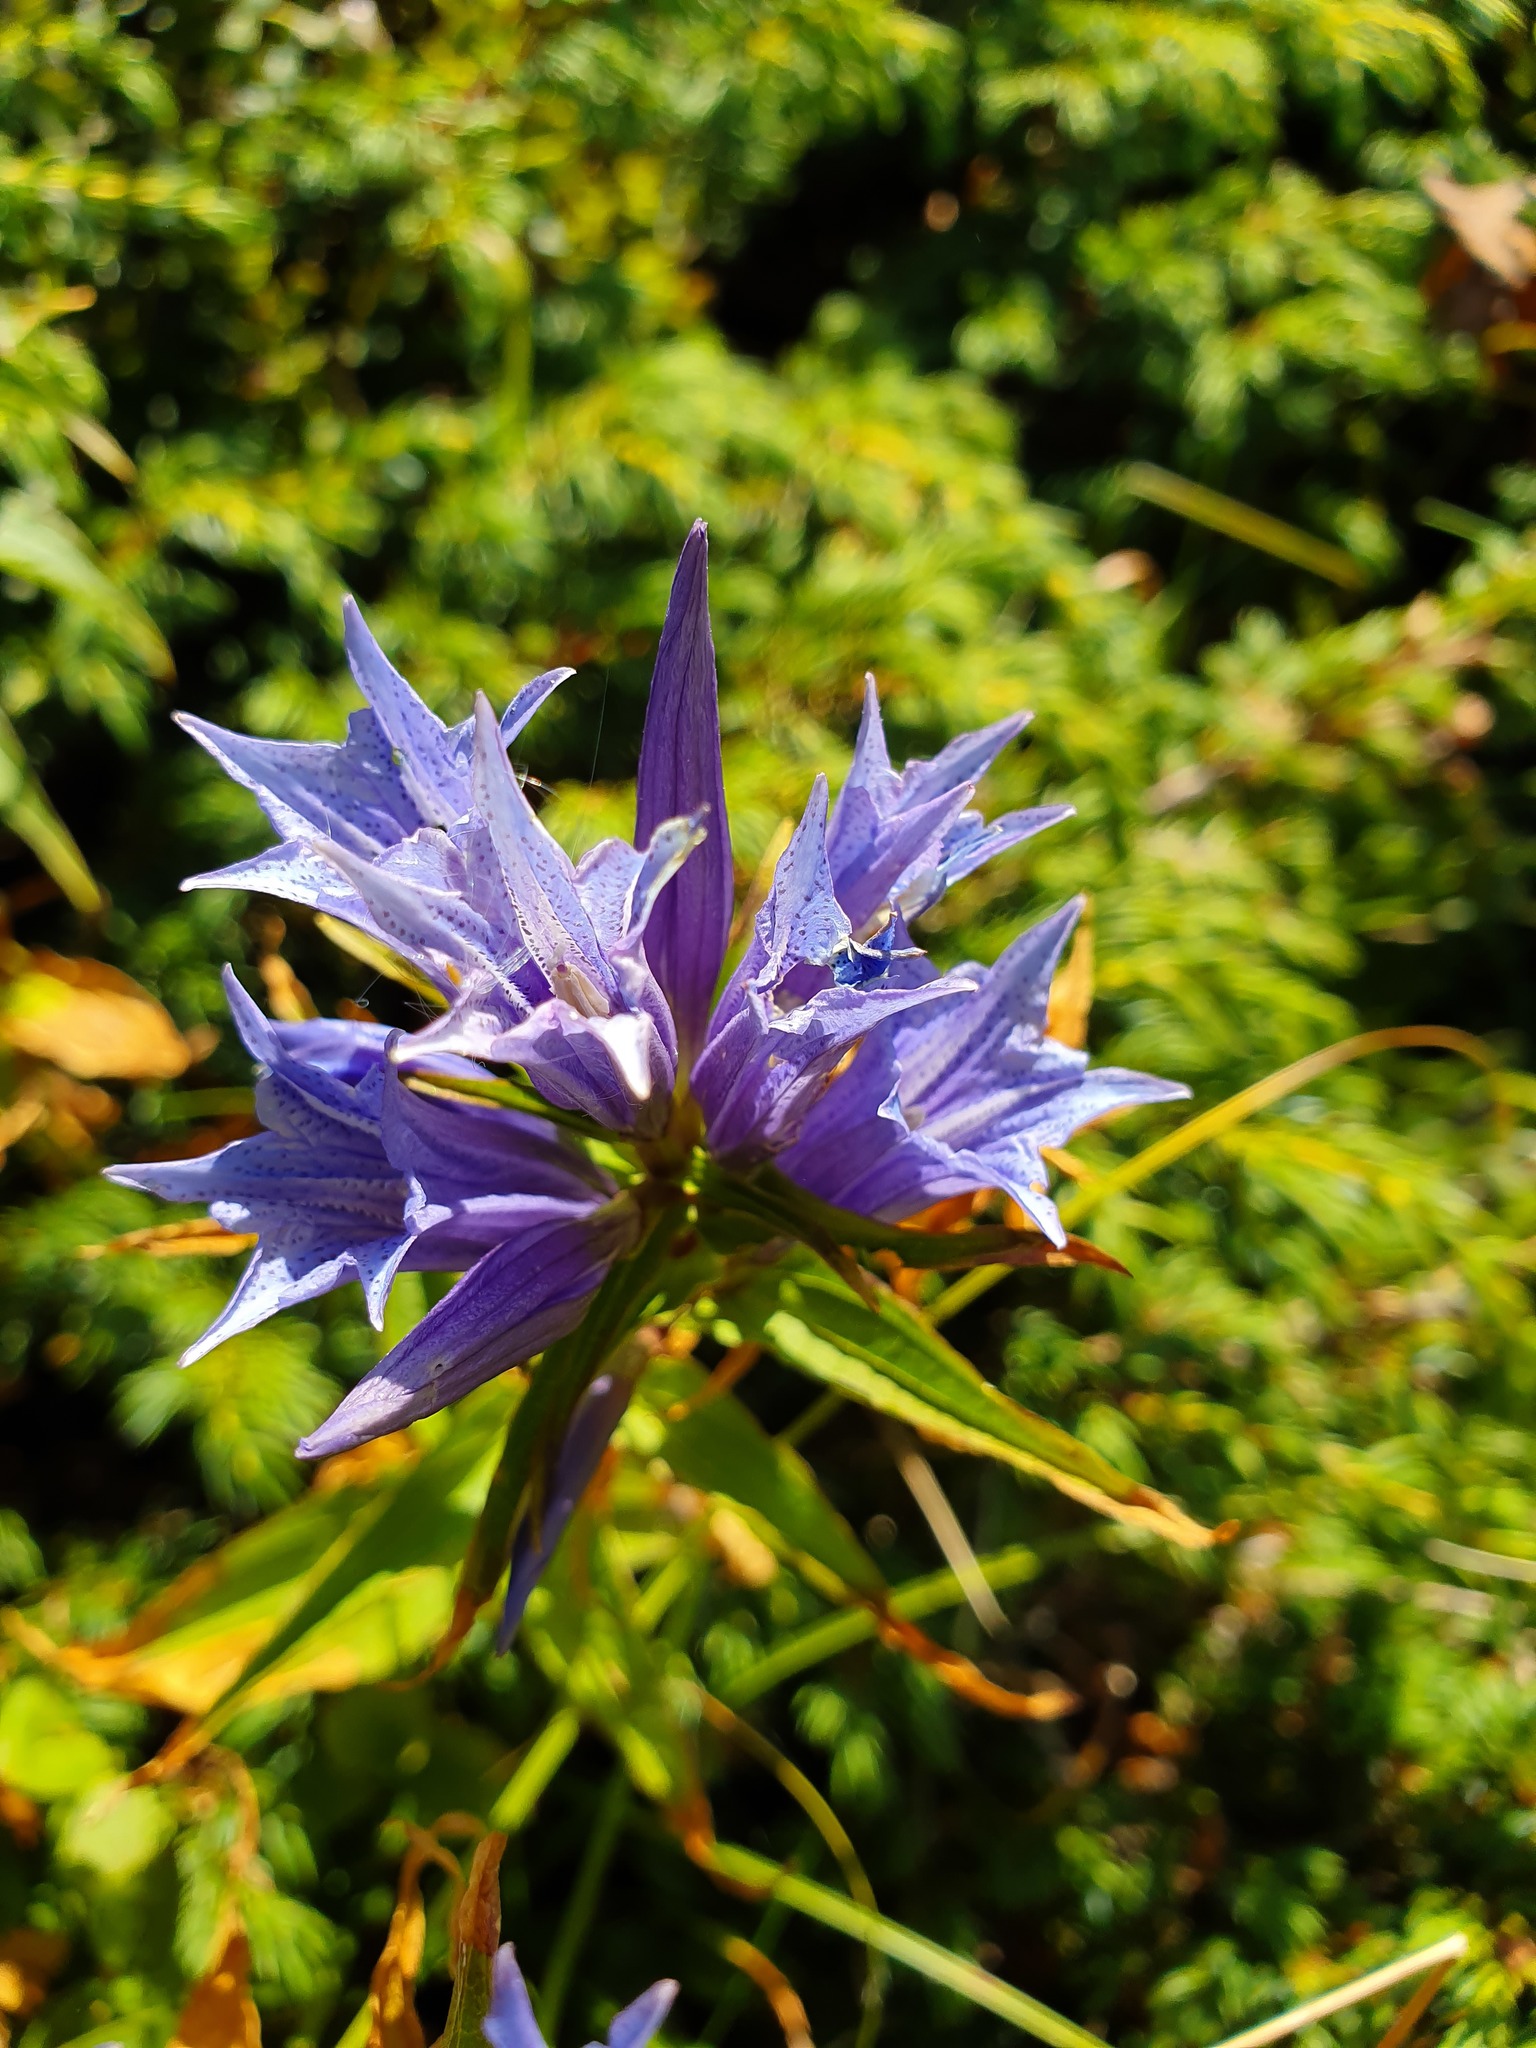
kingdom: Plantae
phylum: Tracheophyta
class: Magnoliopsida
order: Gentianales
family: Gentianaceae
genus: Gentiana
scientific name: Gentiana asclepiadea
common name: Willow gentian
